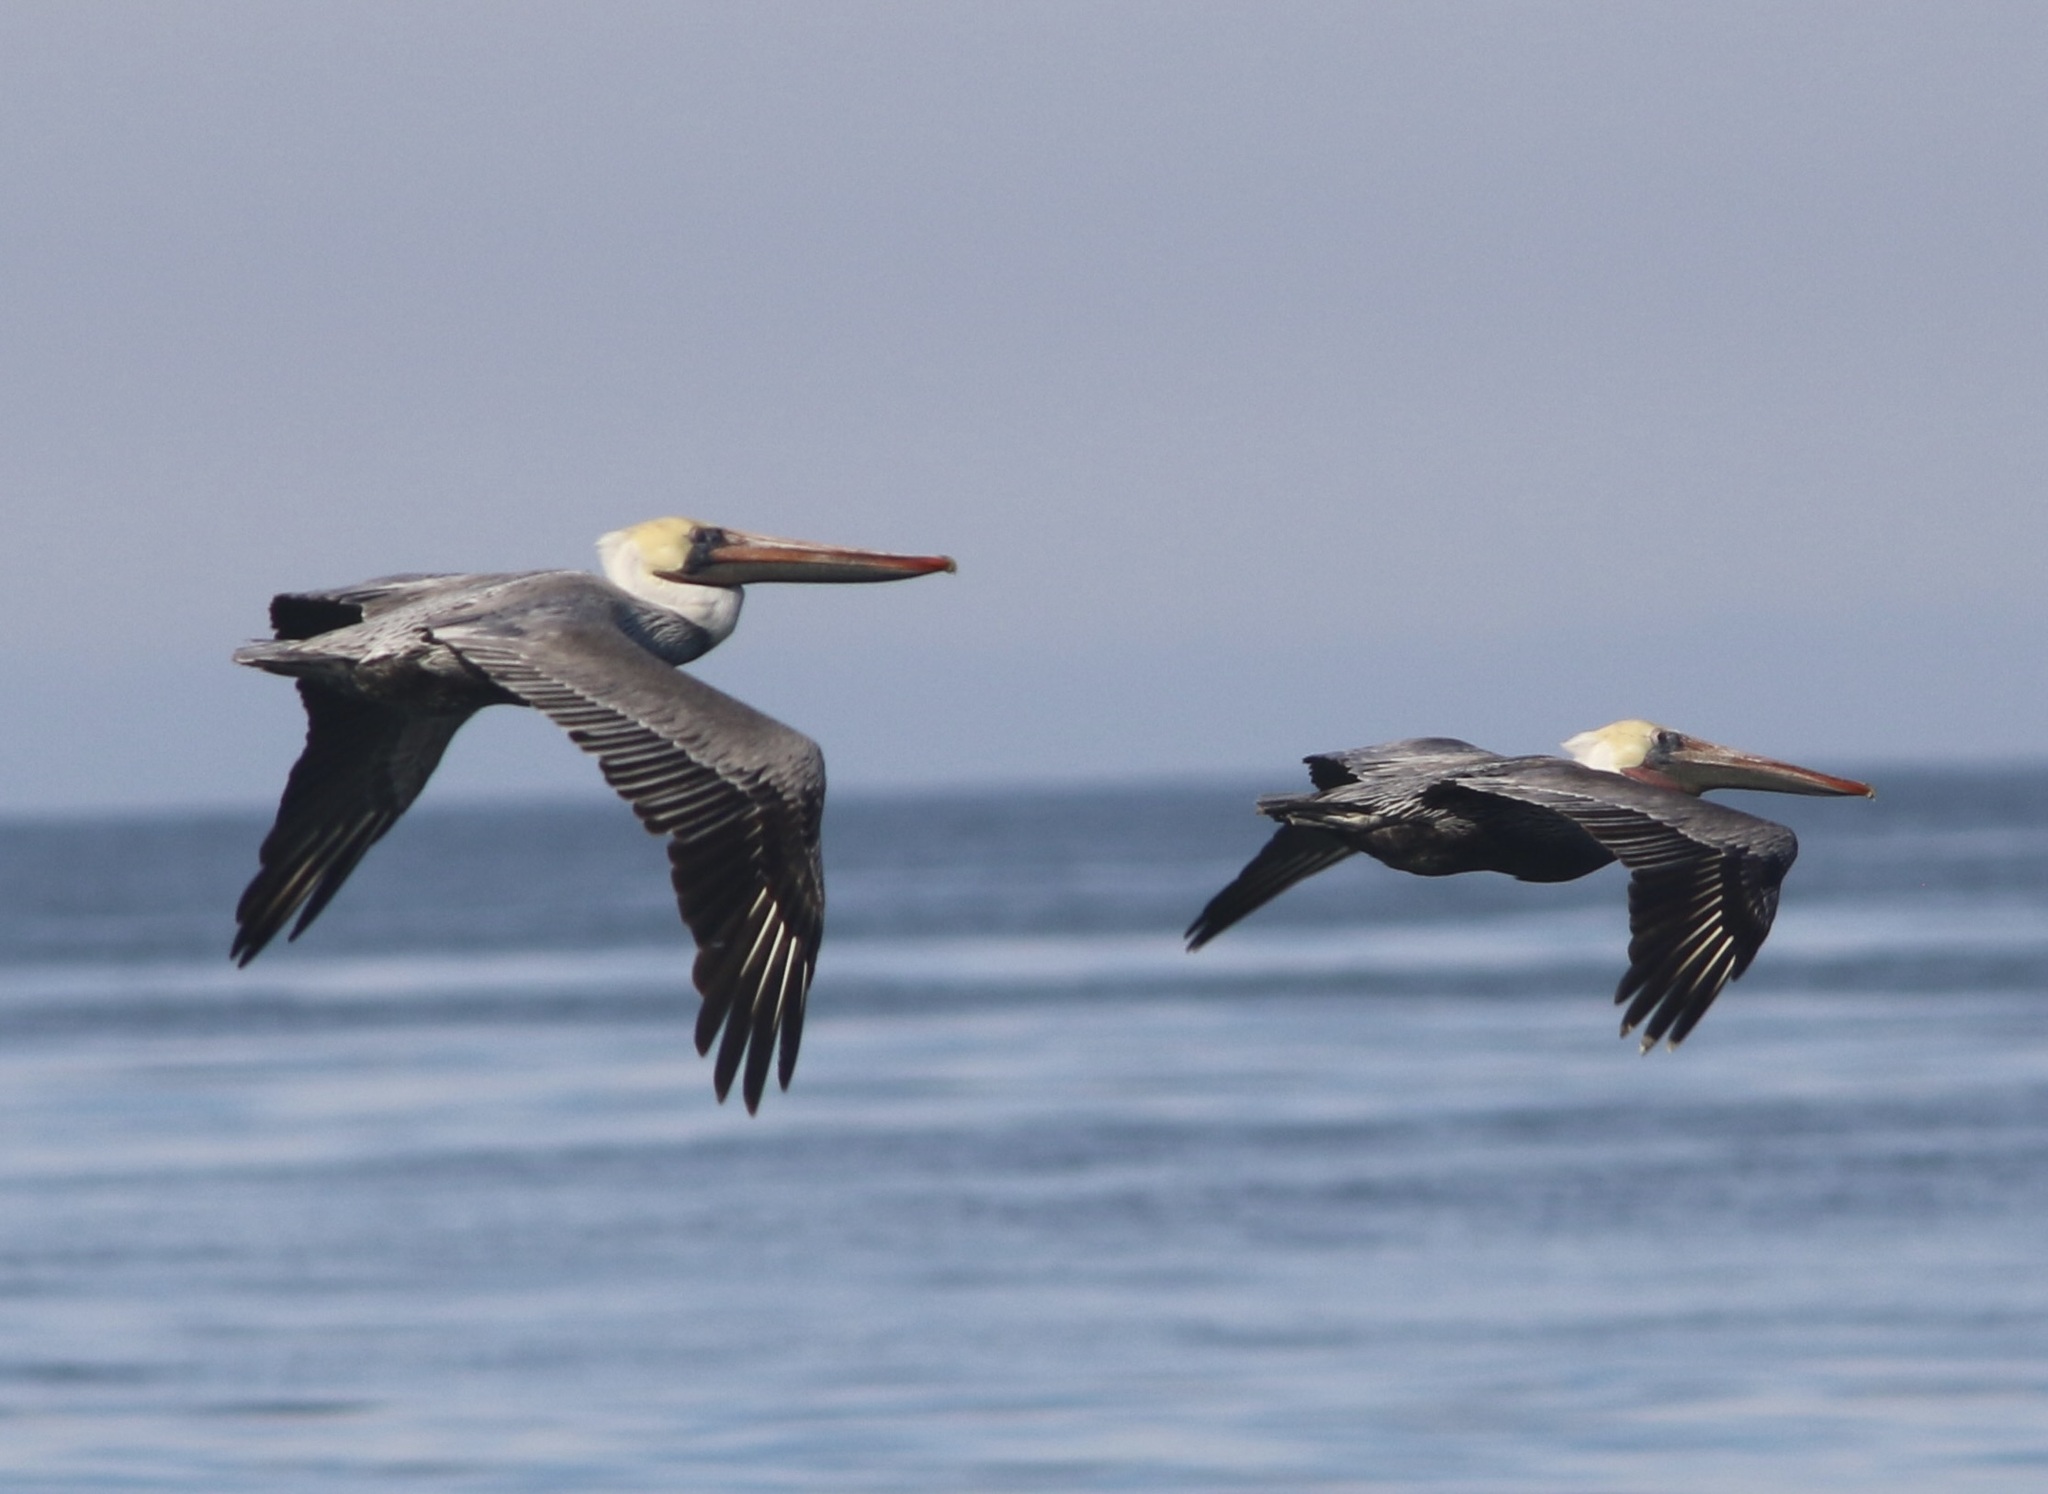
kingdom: Animalia
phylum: Chordata
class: Aves
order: Pelecaniformes
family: Pelecanidae
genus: Pelecanus
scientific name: Pelecanus occidentalis
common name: Brown pelican
